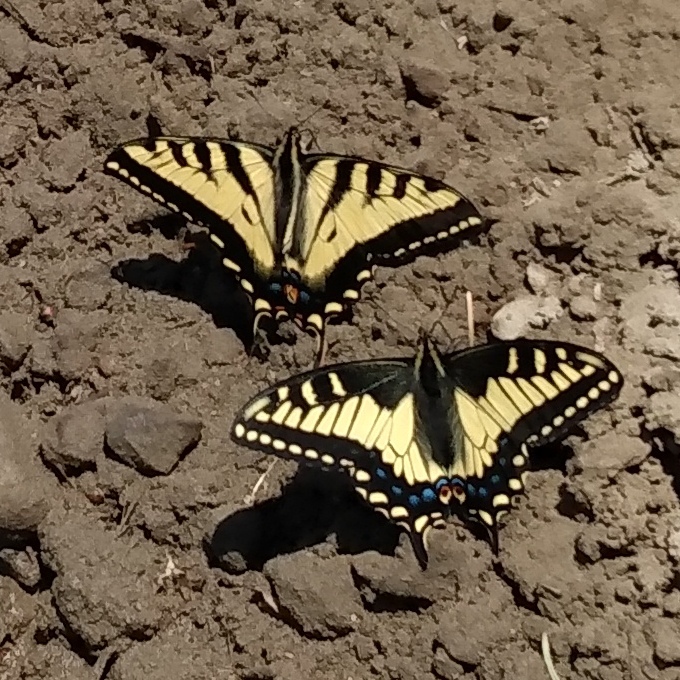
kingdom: Animalia
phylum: Arthropoda
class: Insecta
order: Lepidoptera
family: Papilionidae
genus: Papilio
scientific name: Papilio zelicaon
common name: Anise swallowtail
